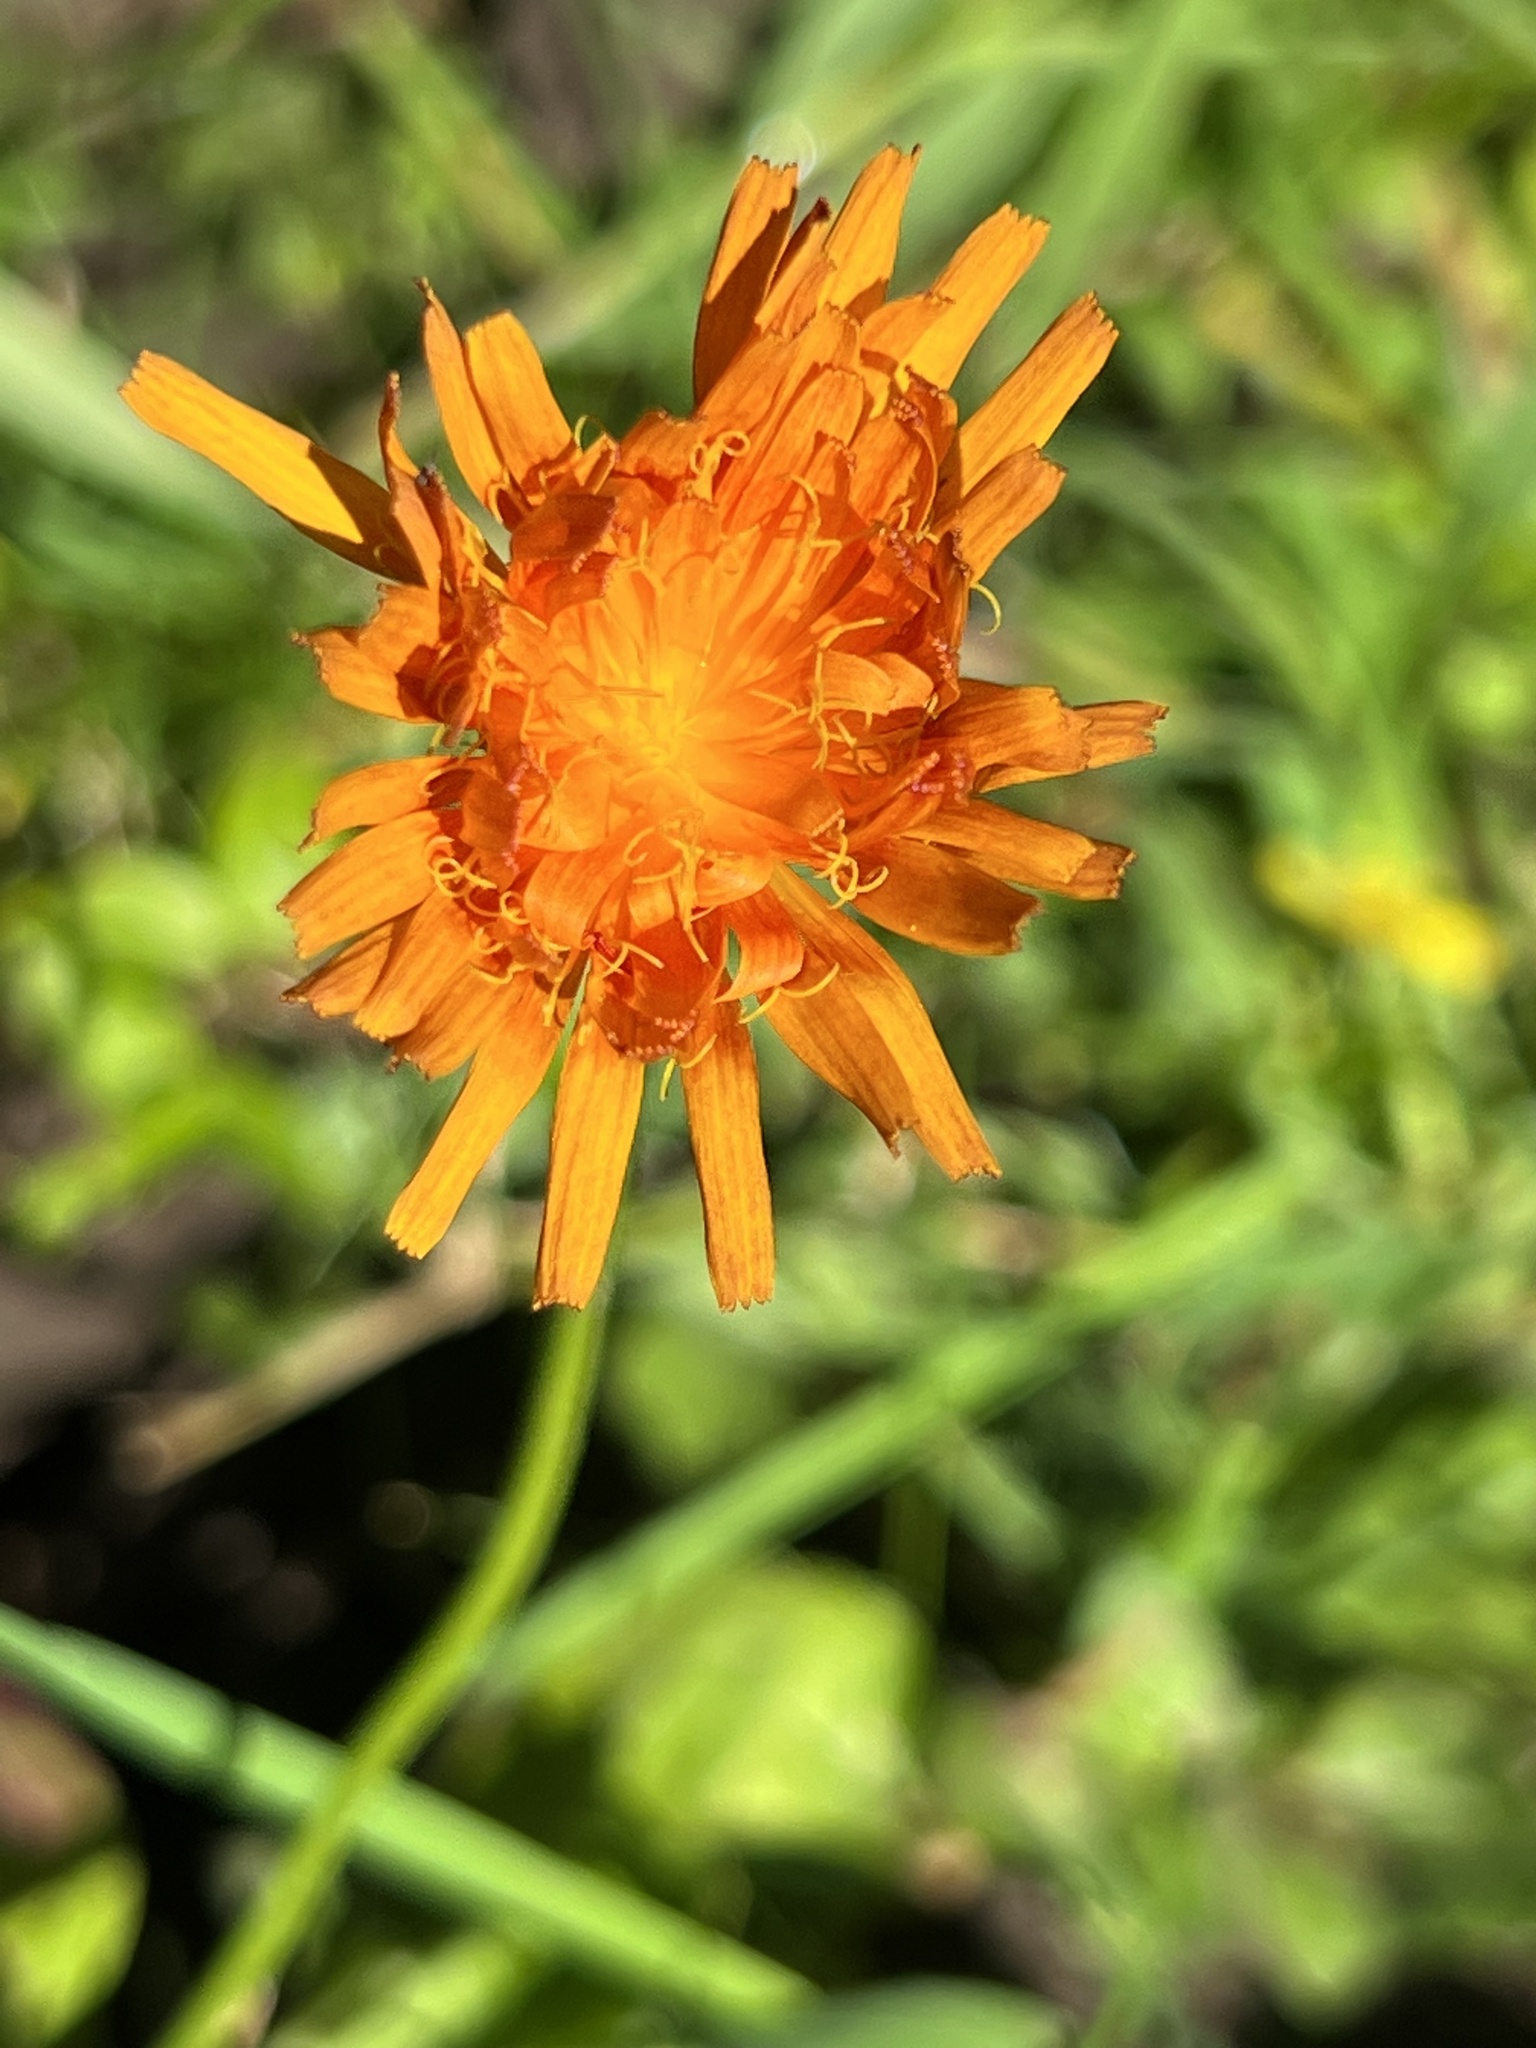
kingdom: Plantae
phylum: Tracheophyta
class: Magnoliopsida
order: Asterales
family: Asteraceae
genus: Crepis
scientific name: Crepis aurea
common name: Golden hawk's-beard
